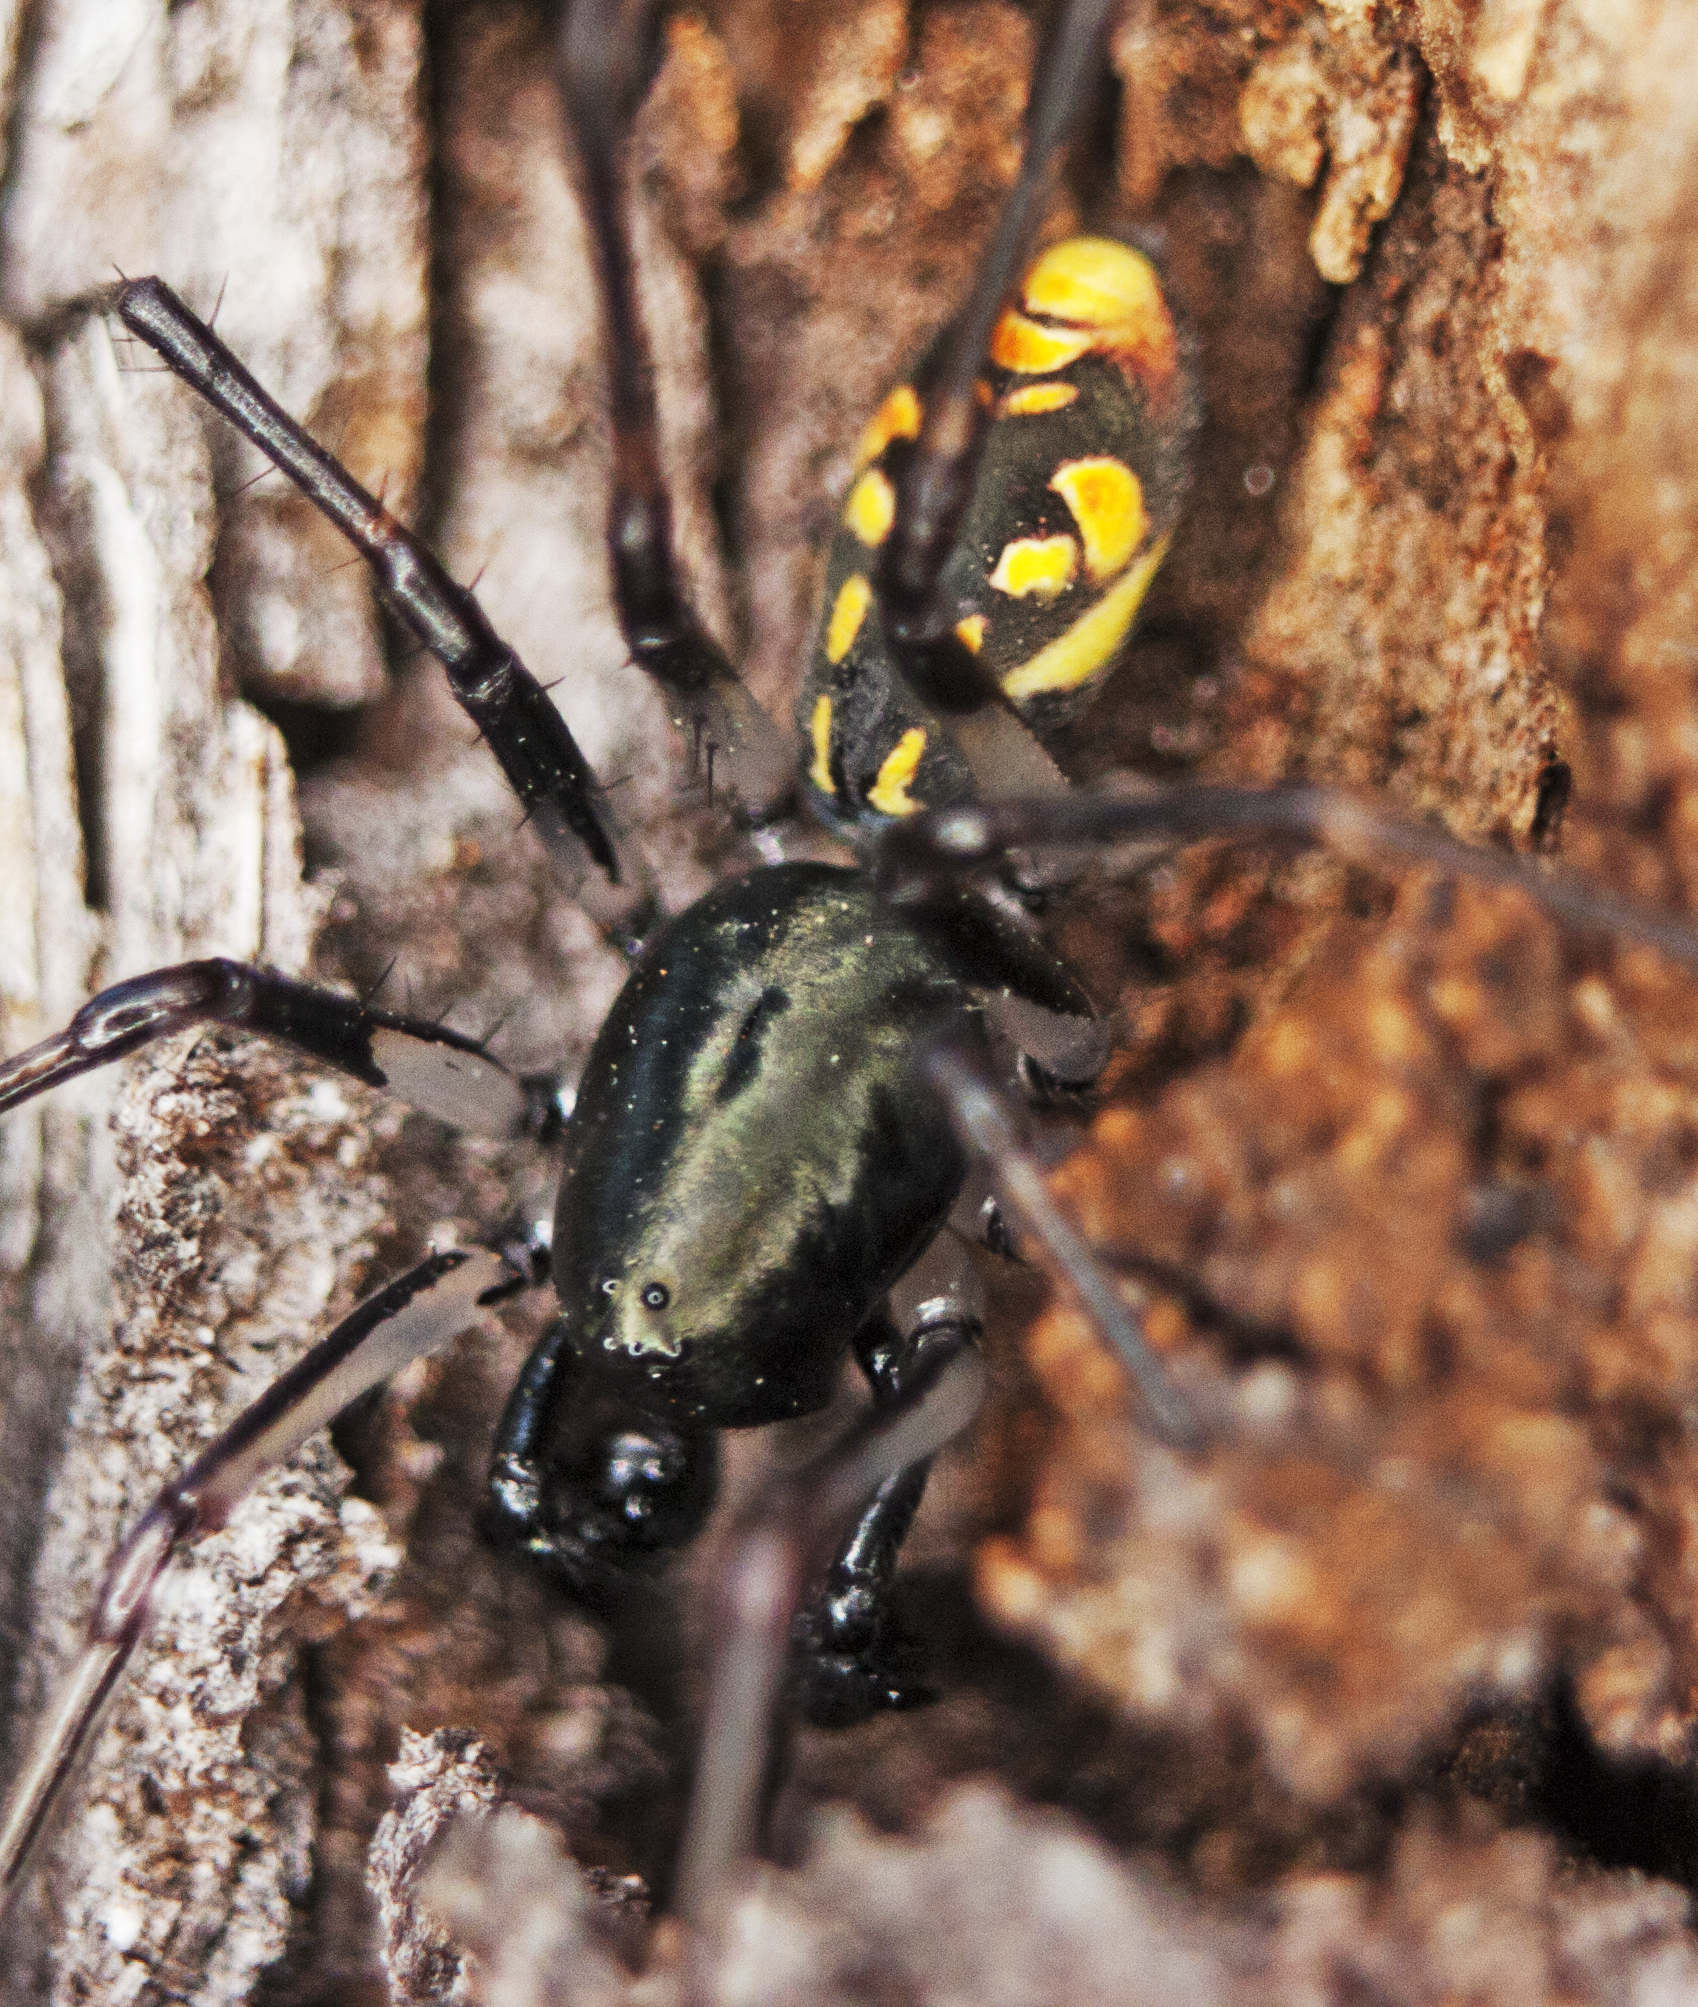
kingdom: Animalia
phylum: Arthropoda
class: Arachnida
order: Araneae
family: Zodariidae
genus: Subasteron
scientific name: Subasteron daviesae
